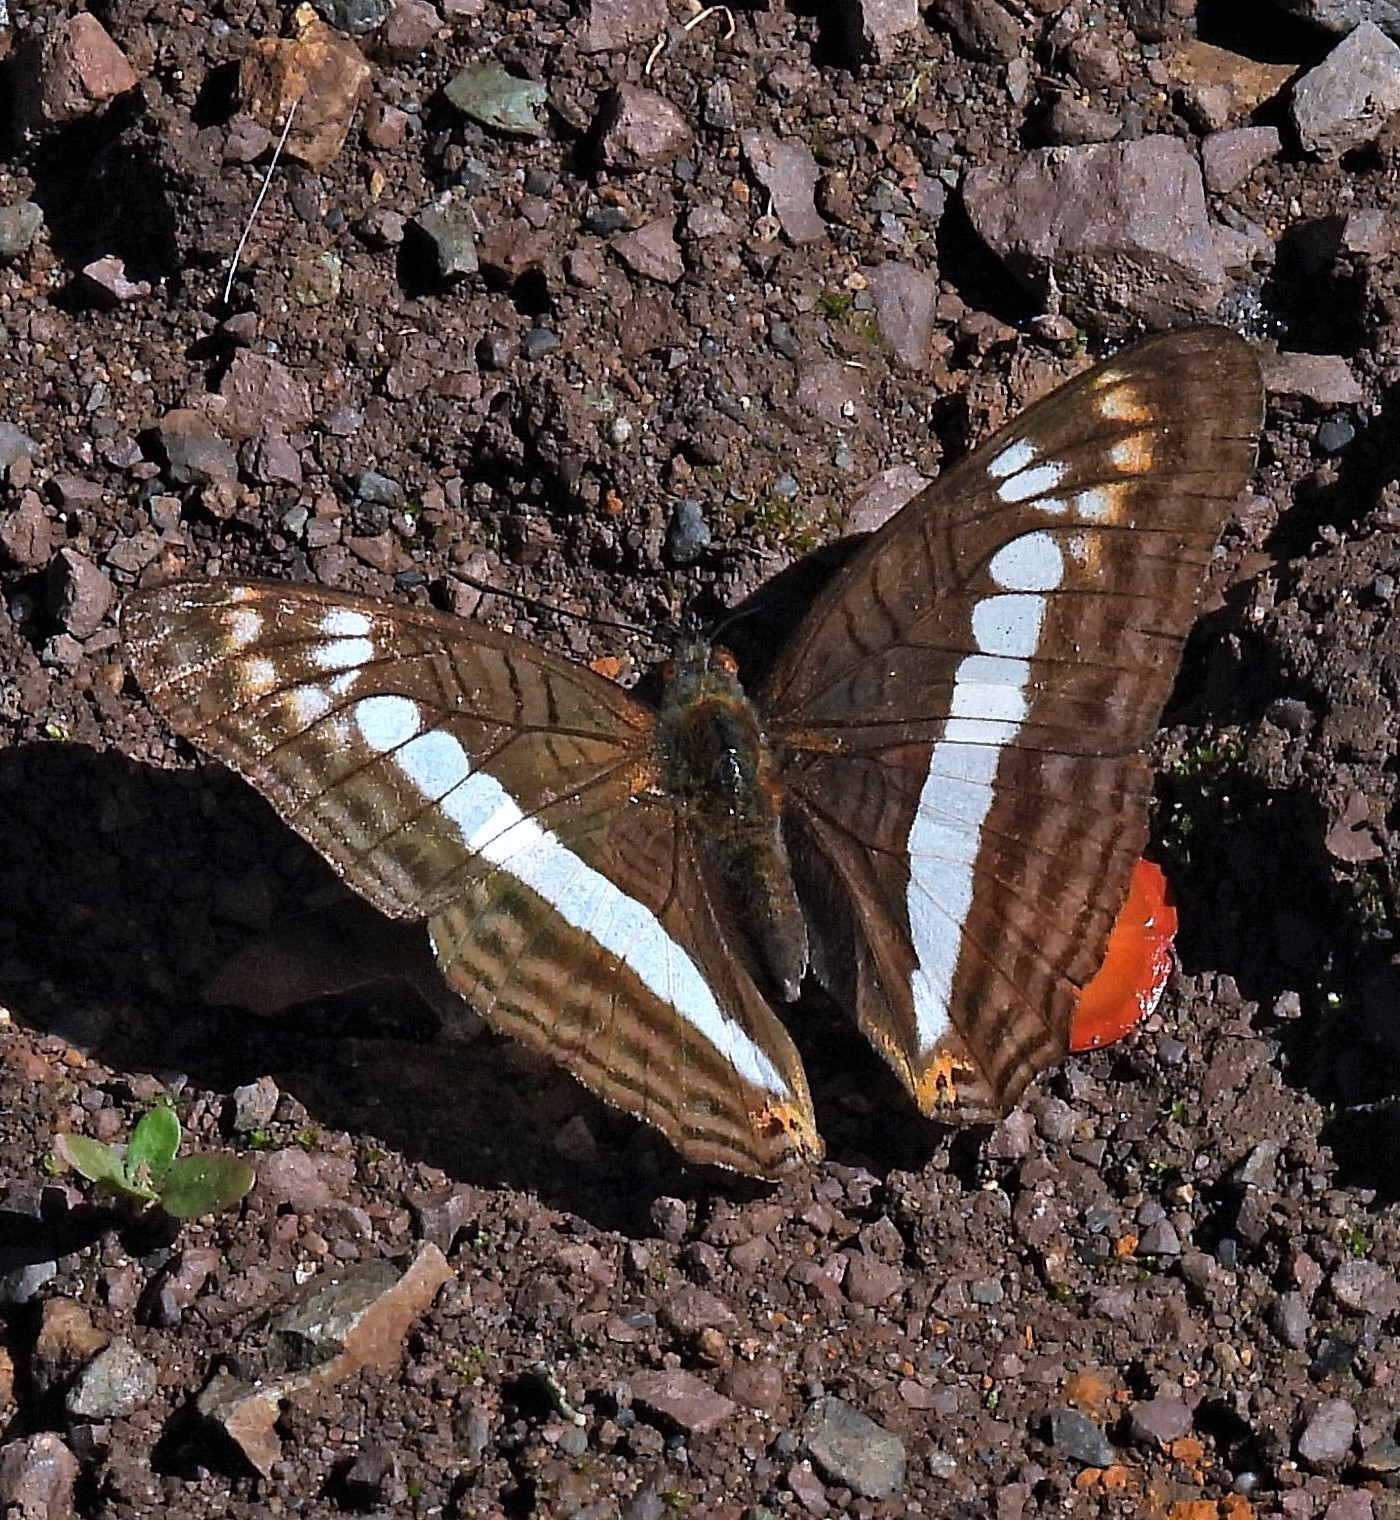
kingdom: Animalia
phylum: Arthropoda
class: Insecta
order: Lepidoptera
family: Nymphalidae
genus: Limenitis
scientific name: Limenitis alala
